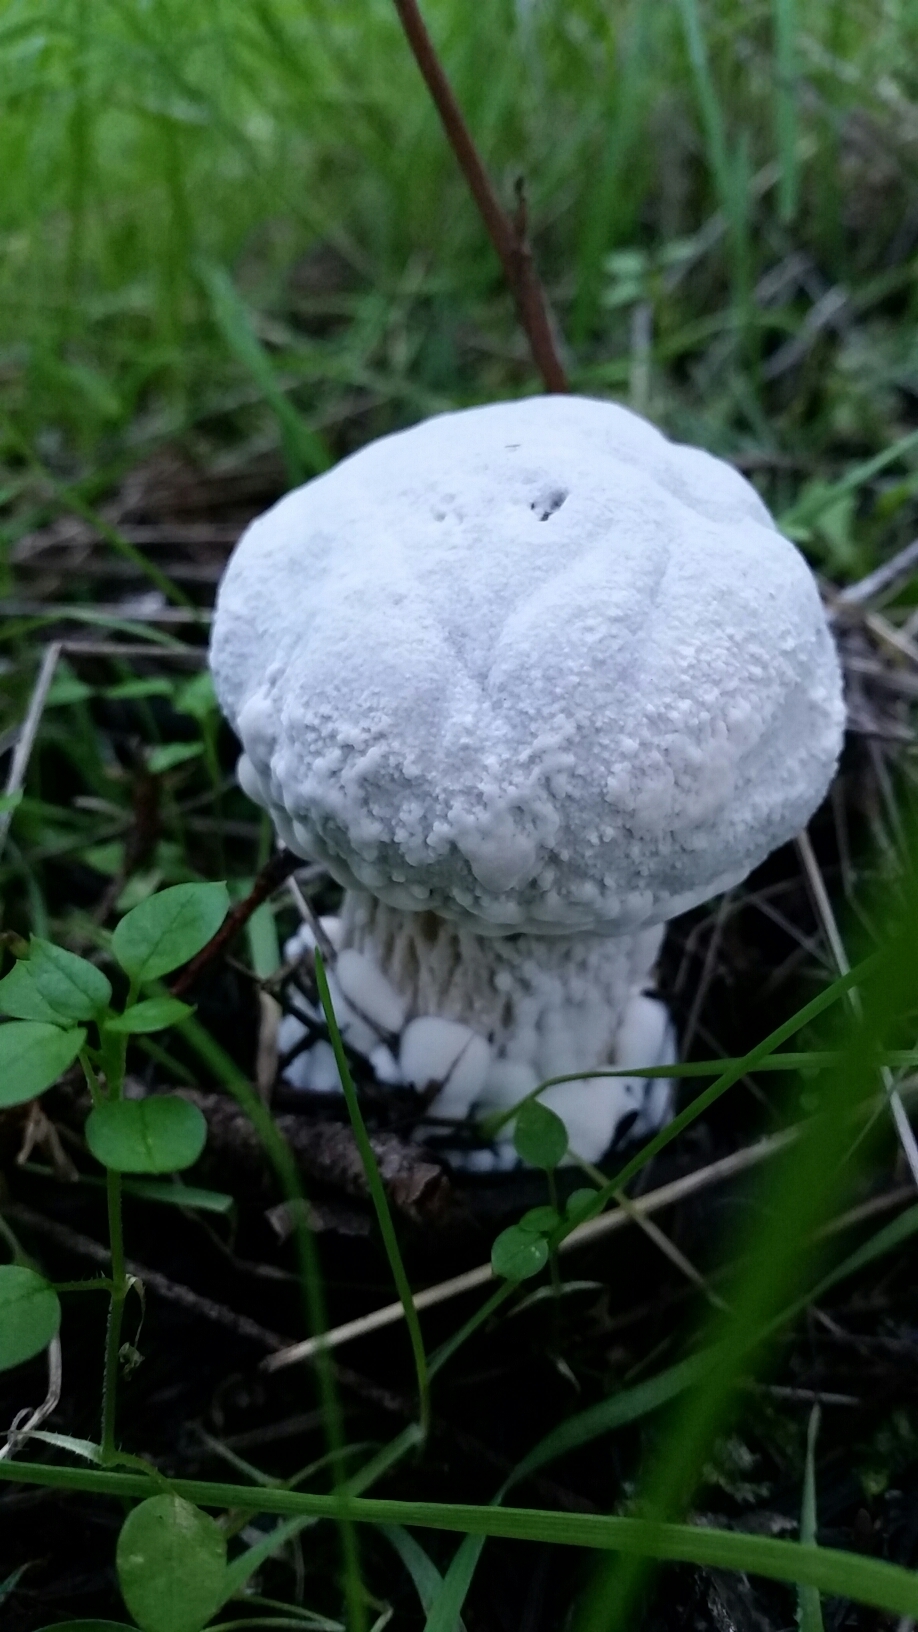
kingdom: Fungi
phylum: Ascomycota
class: Sordariomycetes
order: Hypocreales
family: Hypocreaceae
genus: Hypomyces
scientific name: Hypomyces chrysospermus
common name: Bolete mould
